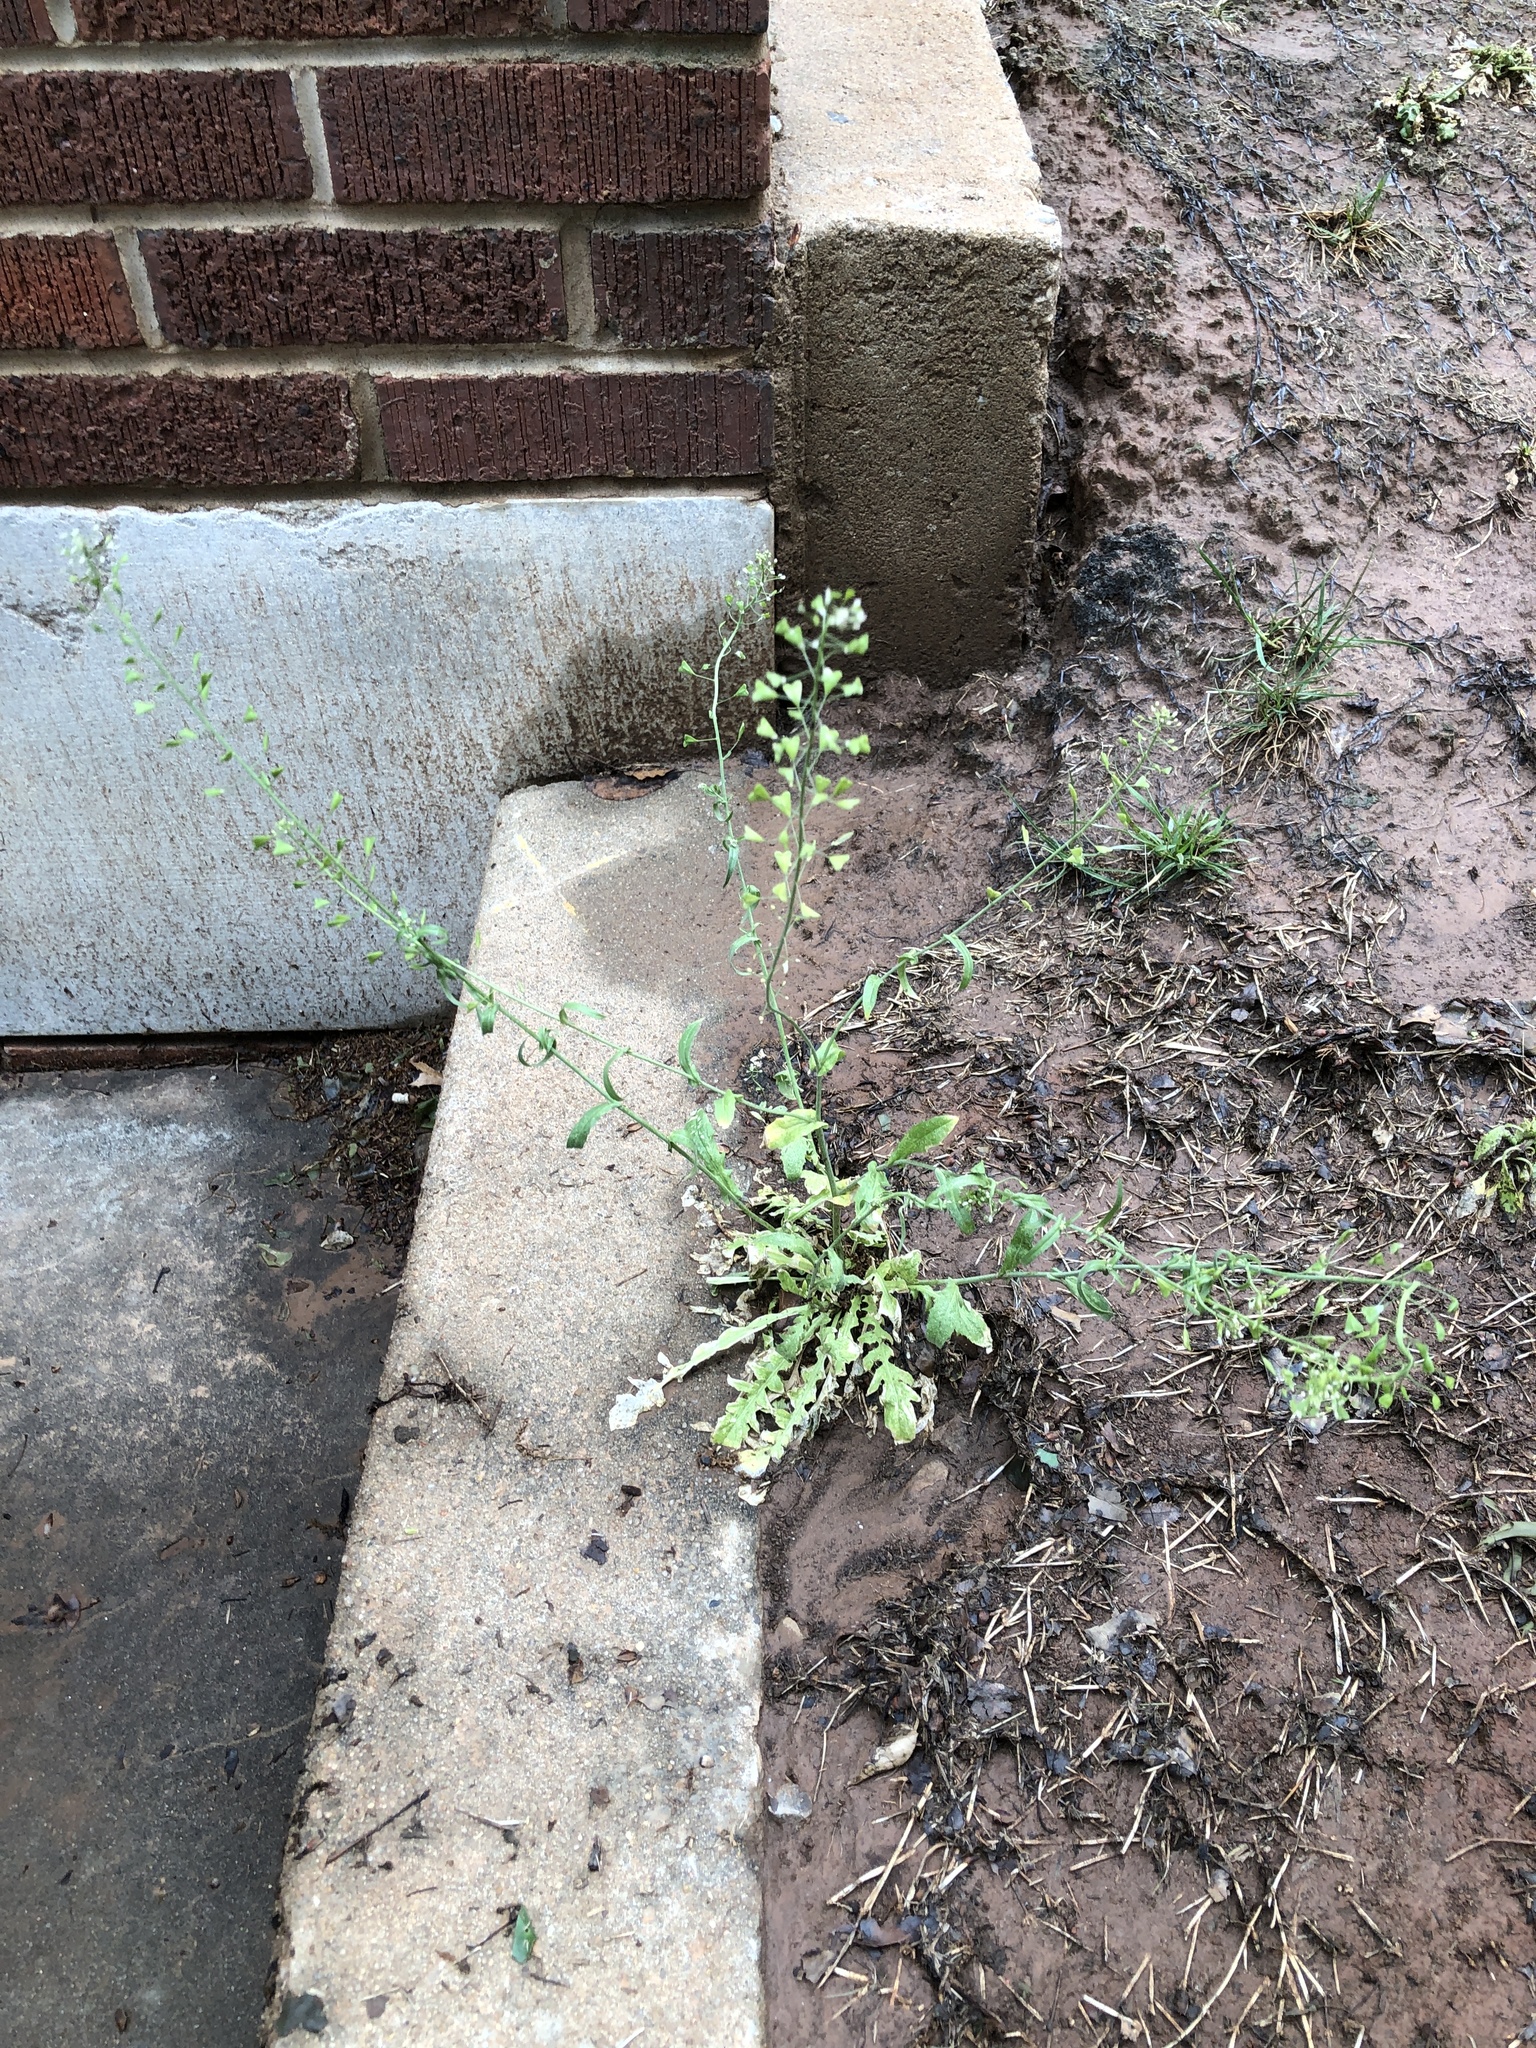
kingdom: Plantae
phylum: Tracheophyta
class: Magnoliopsida
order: Brassicales
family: Brassicaceae
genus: Capsella
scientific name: Capsella bursa-pastoris
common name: Shepherd's purse
